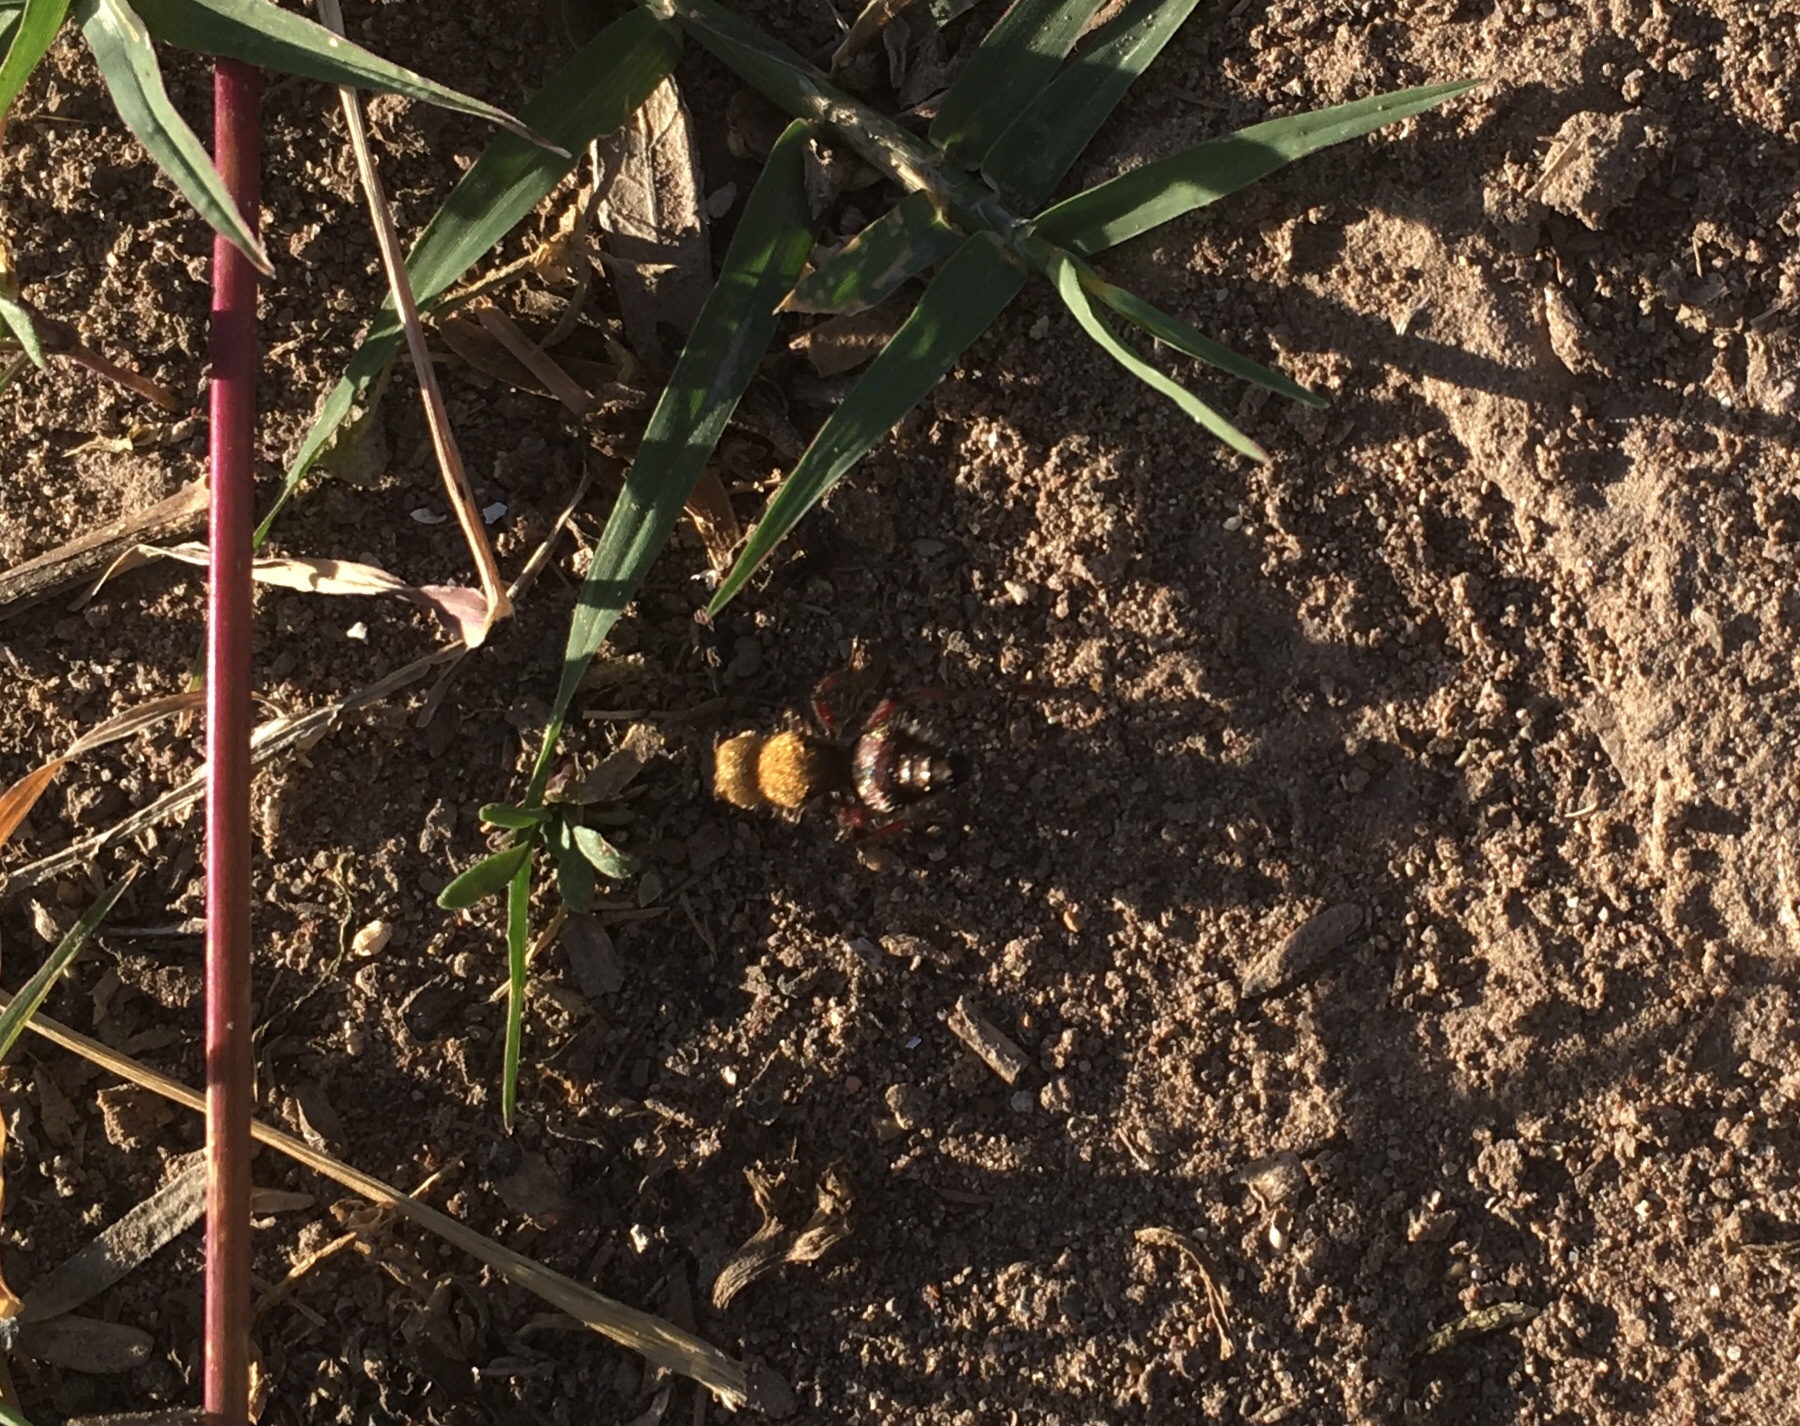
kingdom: Animalia
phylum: Arthropoda
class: Insecta
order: Hymenoptera
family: Mutillidae
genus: Dasymutilla
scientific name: Dasymutilla
